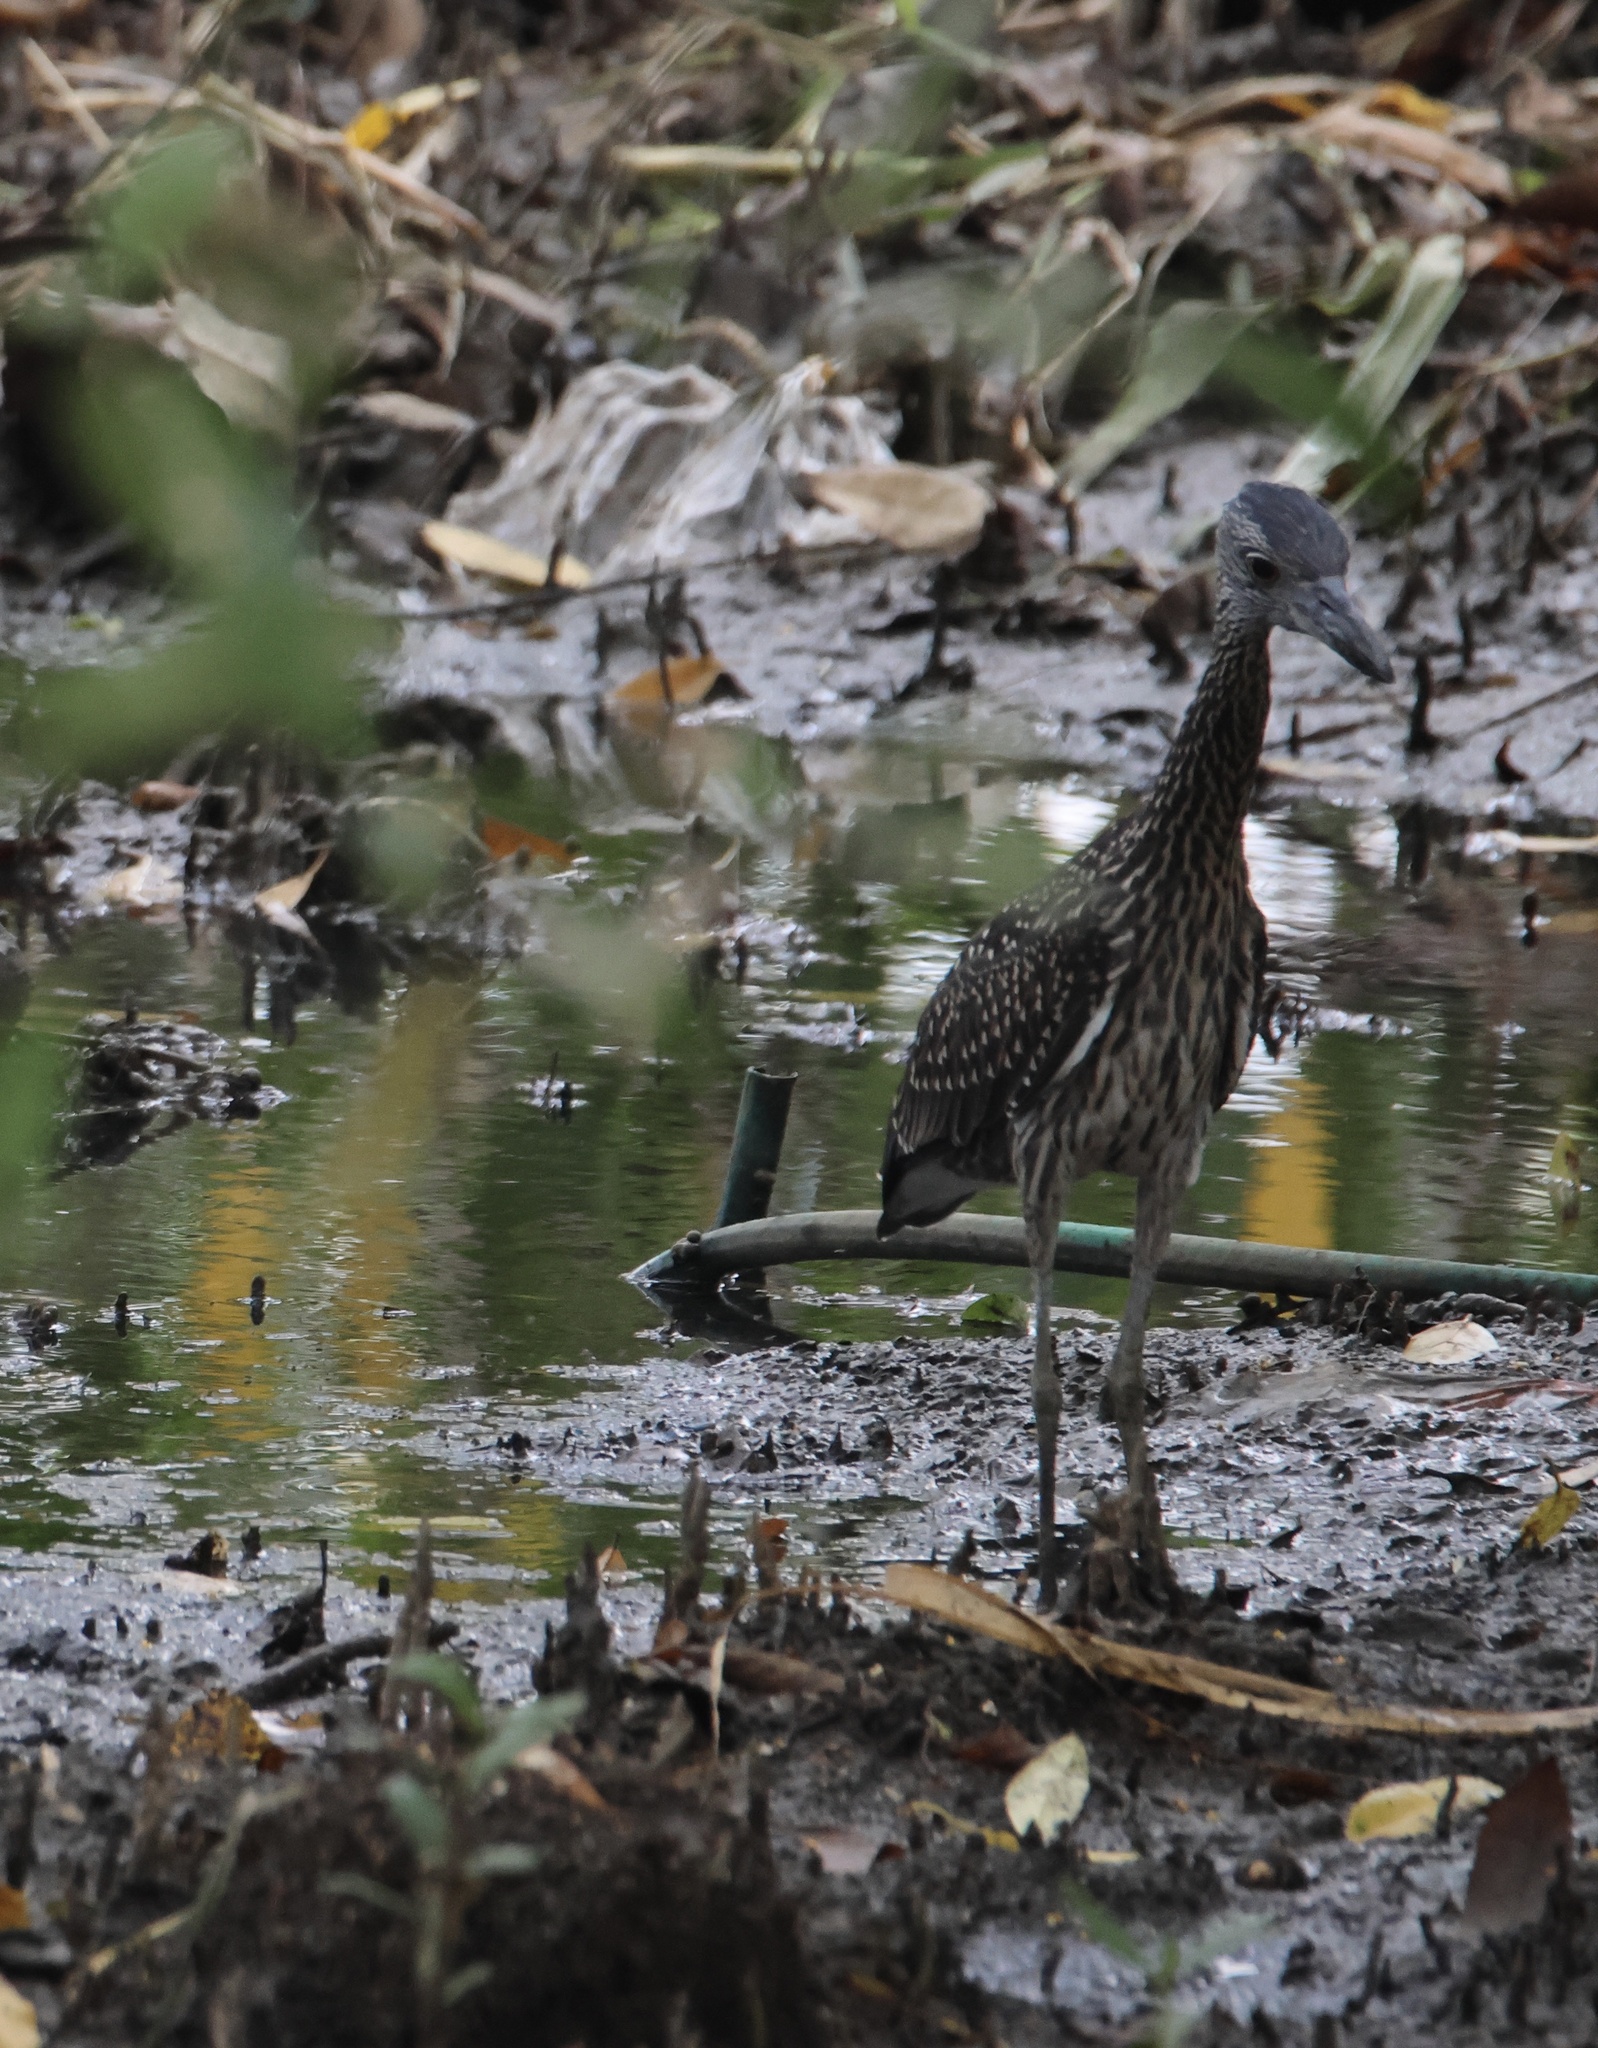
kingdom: Animalia
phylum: Chordata
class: Aves
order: Pelecaniformes
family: Ardeidae
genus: Nycticorax
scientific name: Nycticorax nycticorax
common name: Black-crowned night heron
